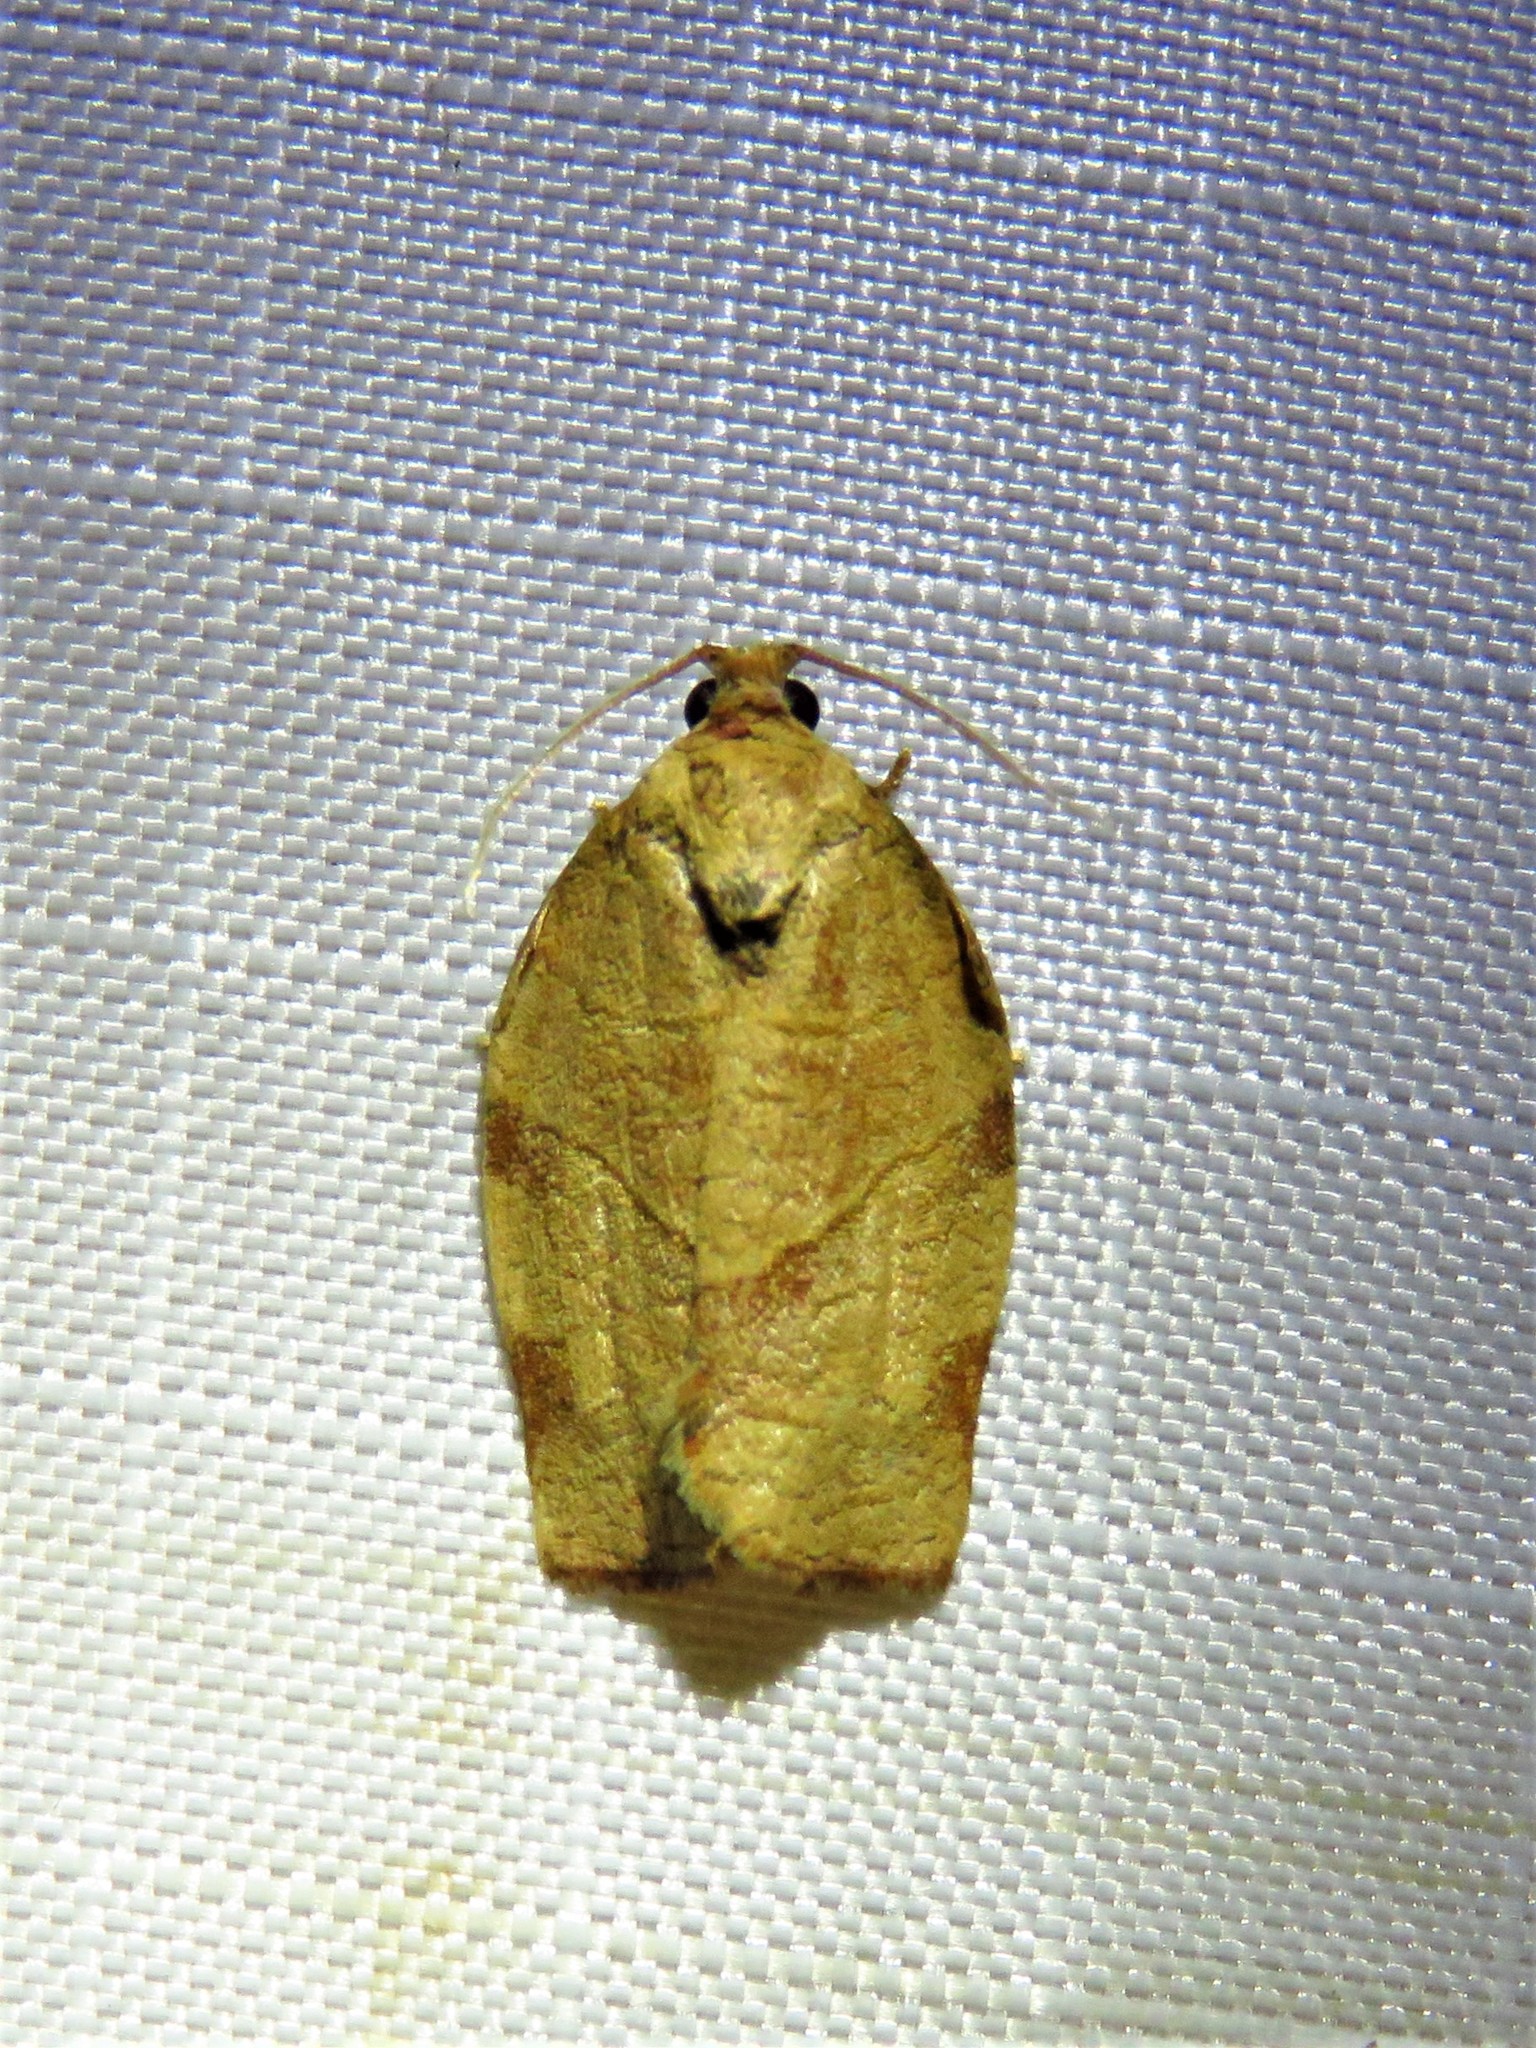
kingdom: Animalia
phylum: Arthropoda
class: Insecta
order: Lepidoptera
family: Tortricidae
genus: Choristoneura
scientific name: Choristoneura rosaceana
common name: Oblique-banded leafroller moth
